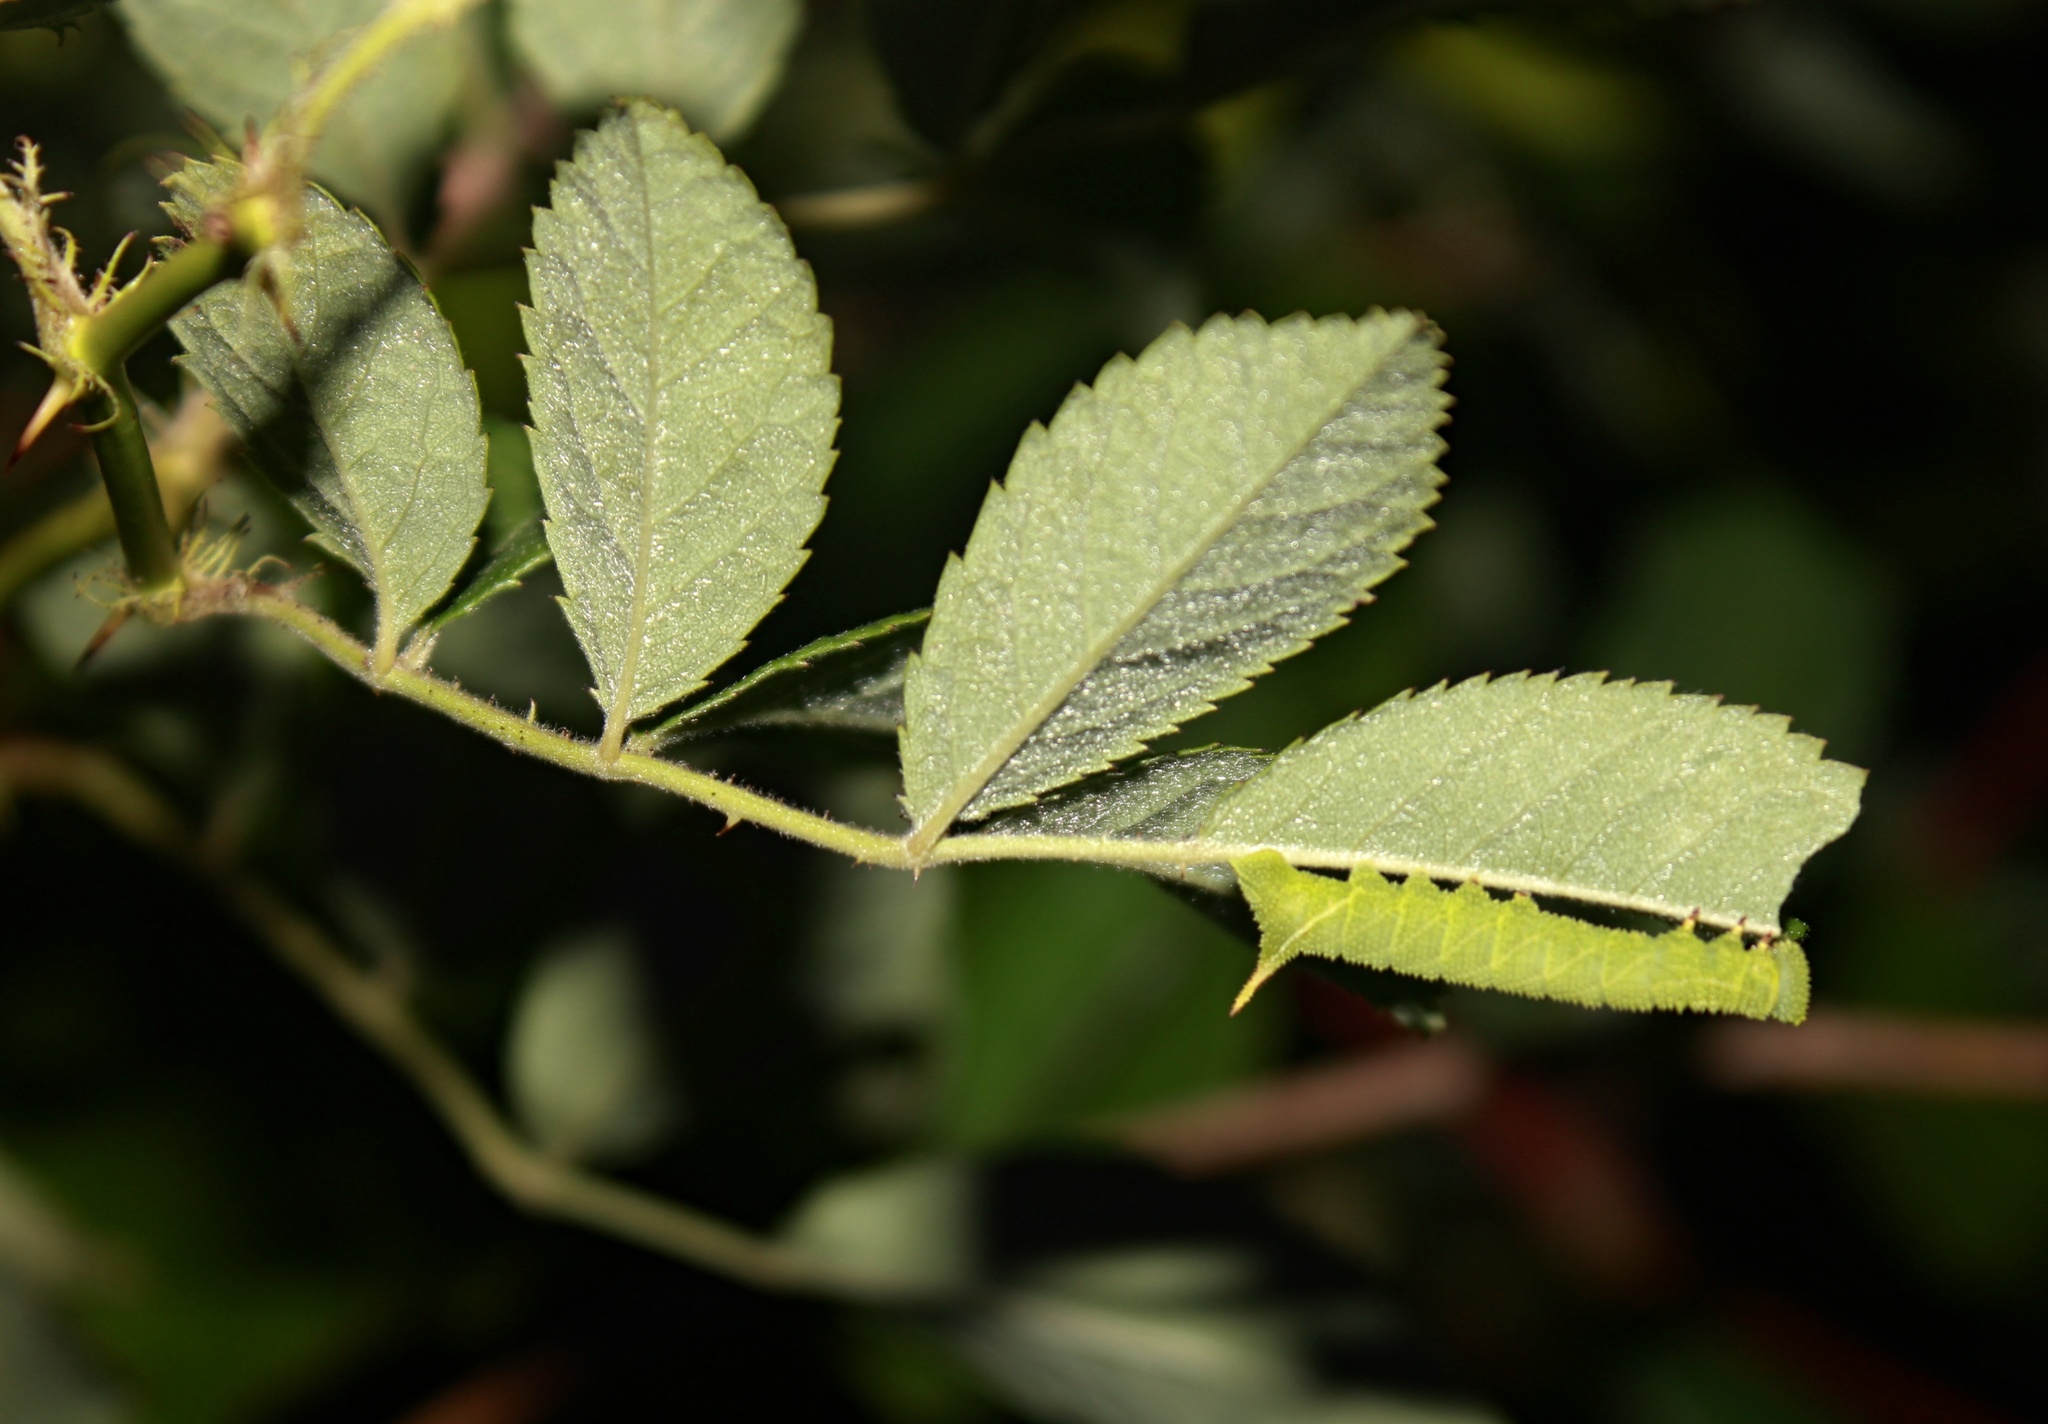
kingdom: Animalia
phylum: Arthropoda
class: Insecta
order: Lepidoptera
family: Sphingidae
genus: Paonias
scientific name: Paonias excaecata
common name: Blind-eyed sphinx
